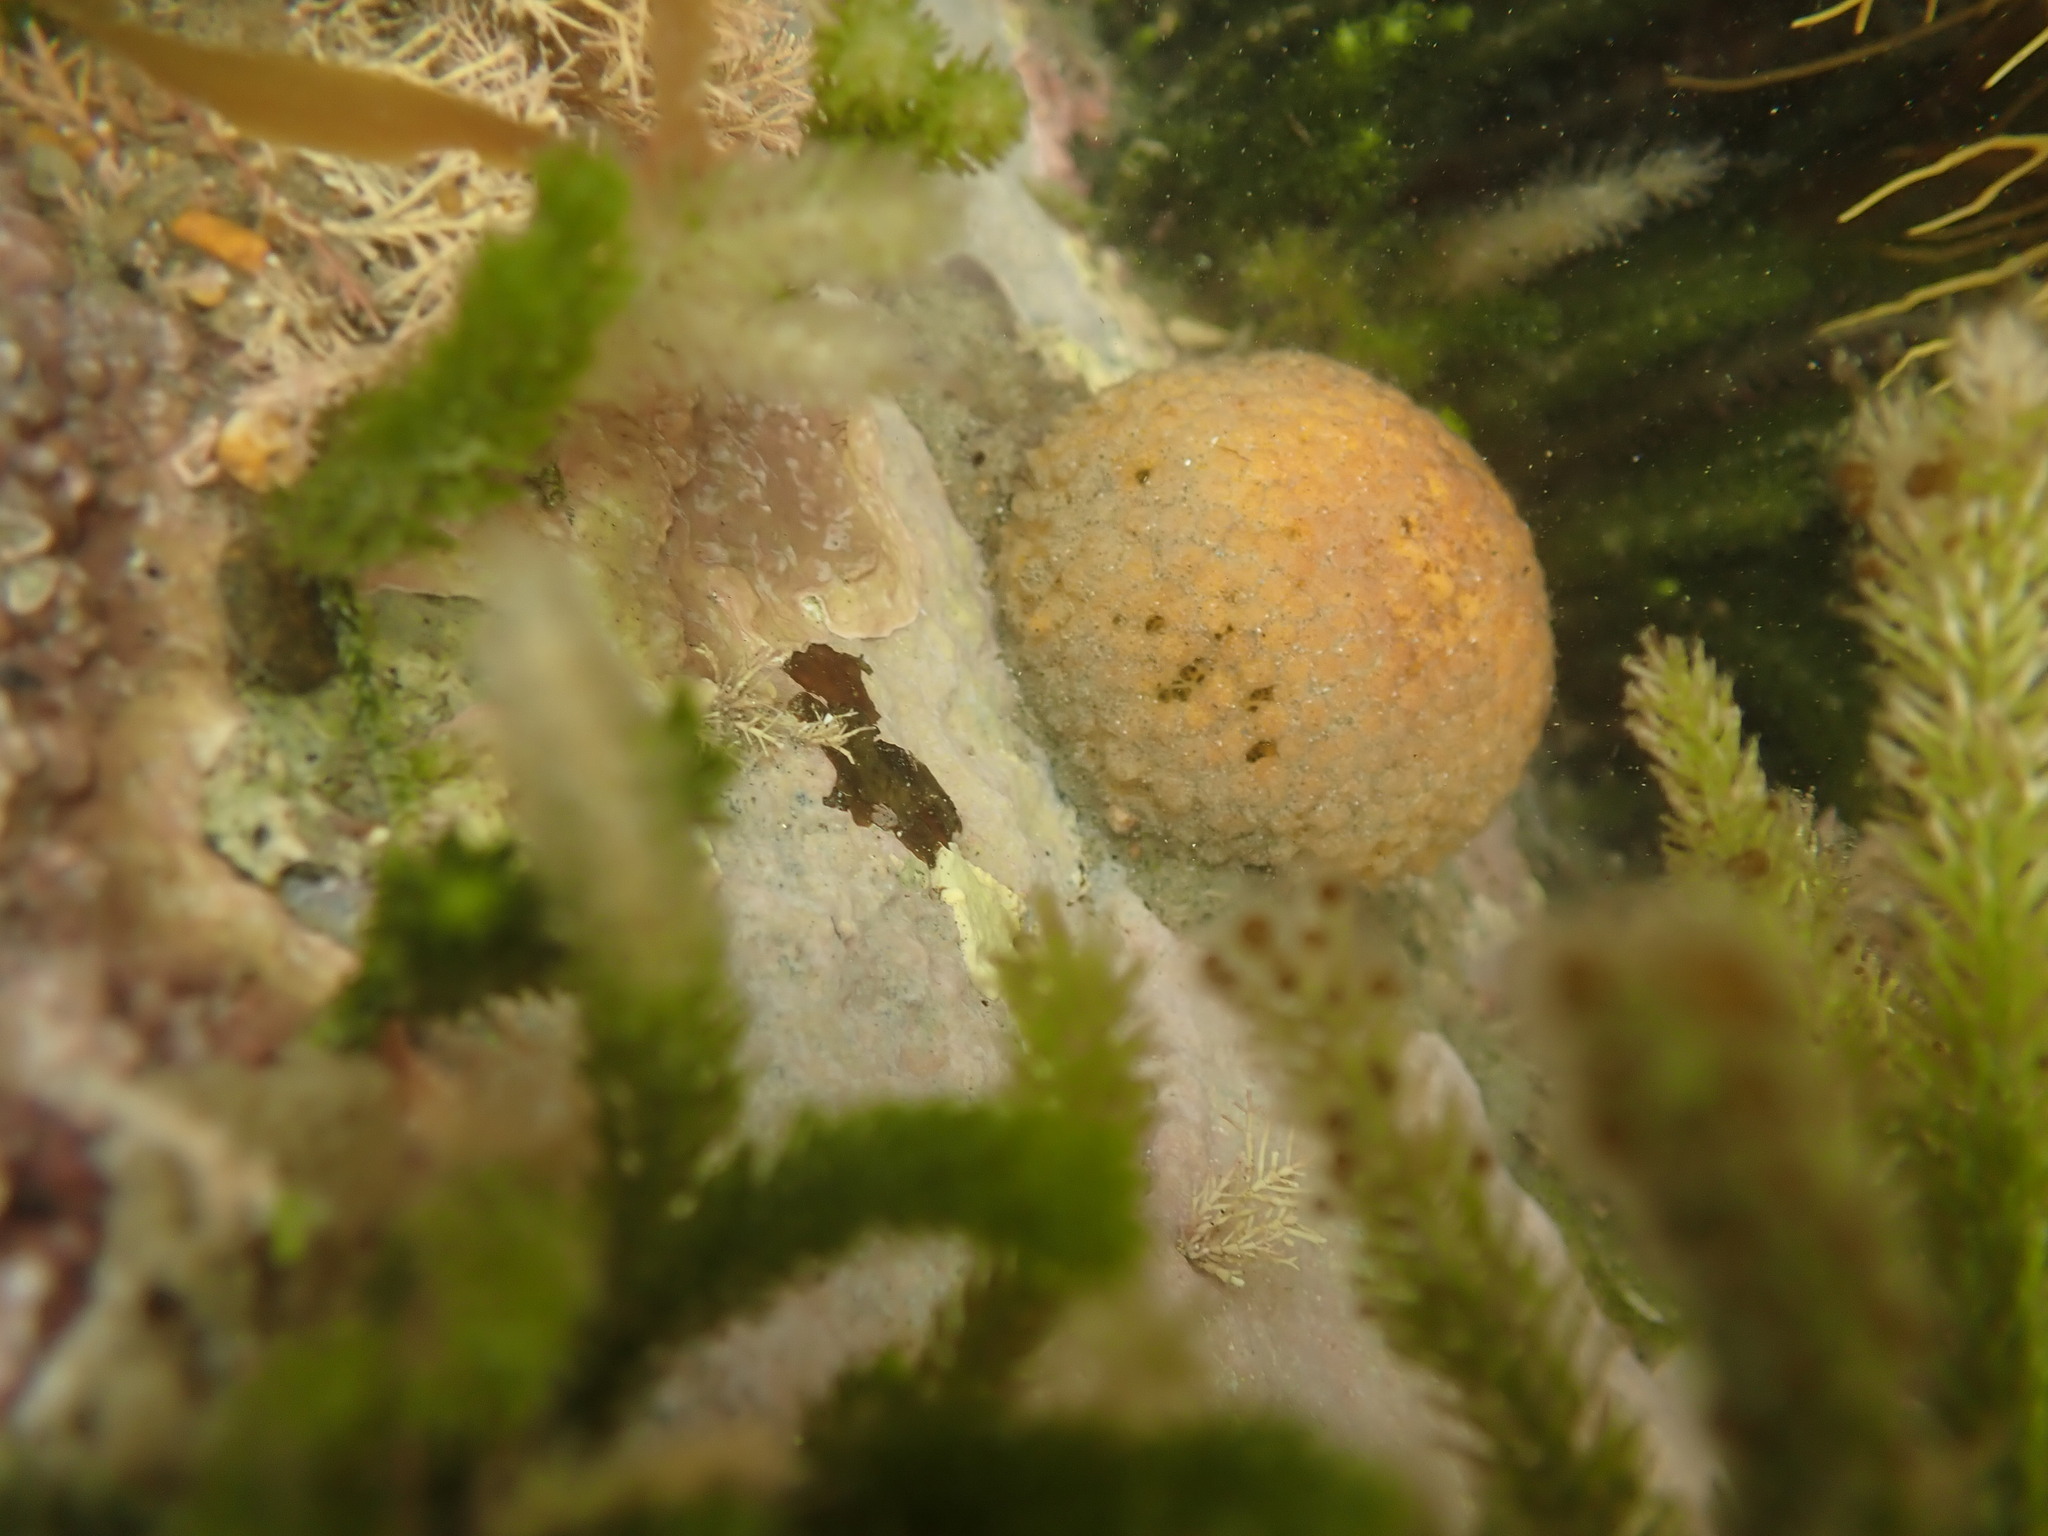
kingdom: Animalia
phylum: Porifera
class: Demospongiae
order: Tethyida
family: Tethyidae
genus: Tethya
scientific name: Tethya burtoni
